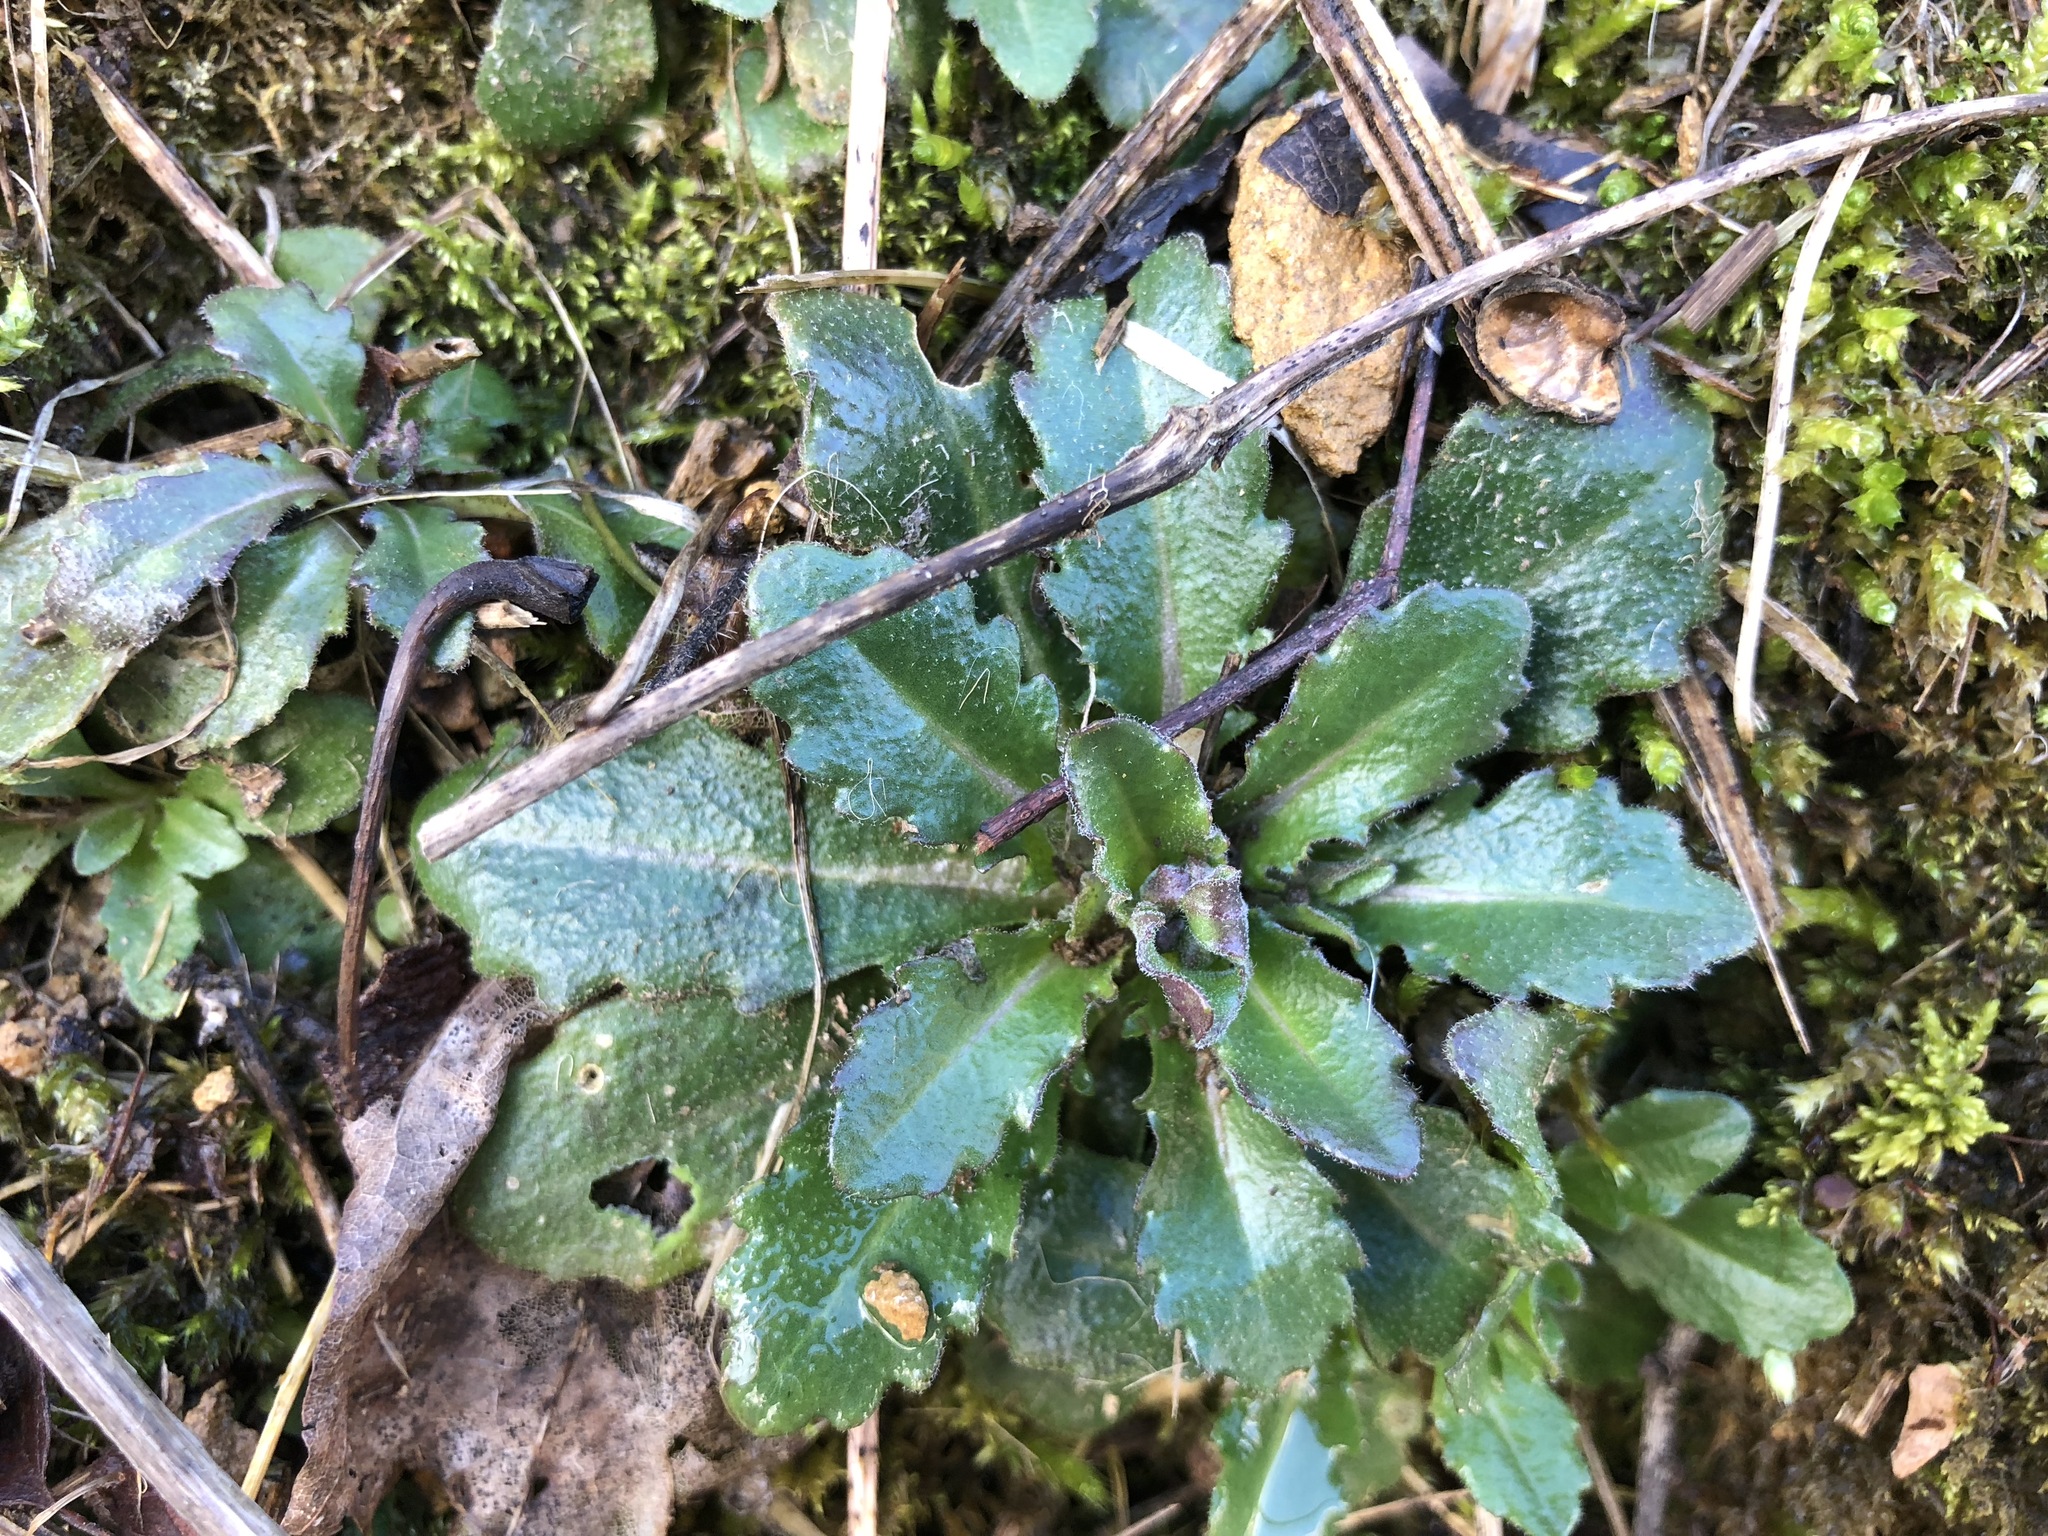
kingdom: Plantae
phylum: Tracheophyta
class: Magnoliopsida
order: Brassicales
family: Brassicaceae
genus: Arabis
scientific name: Arabis collina
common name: Rosy cress
